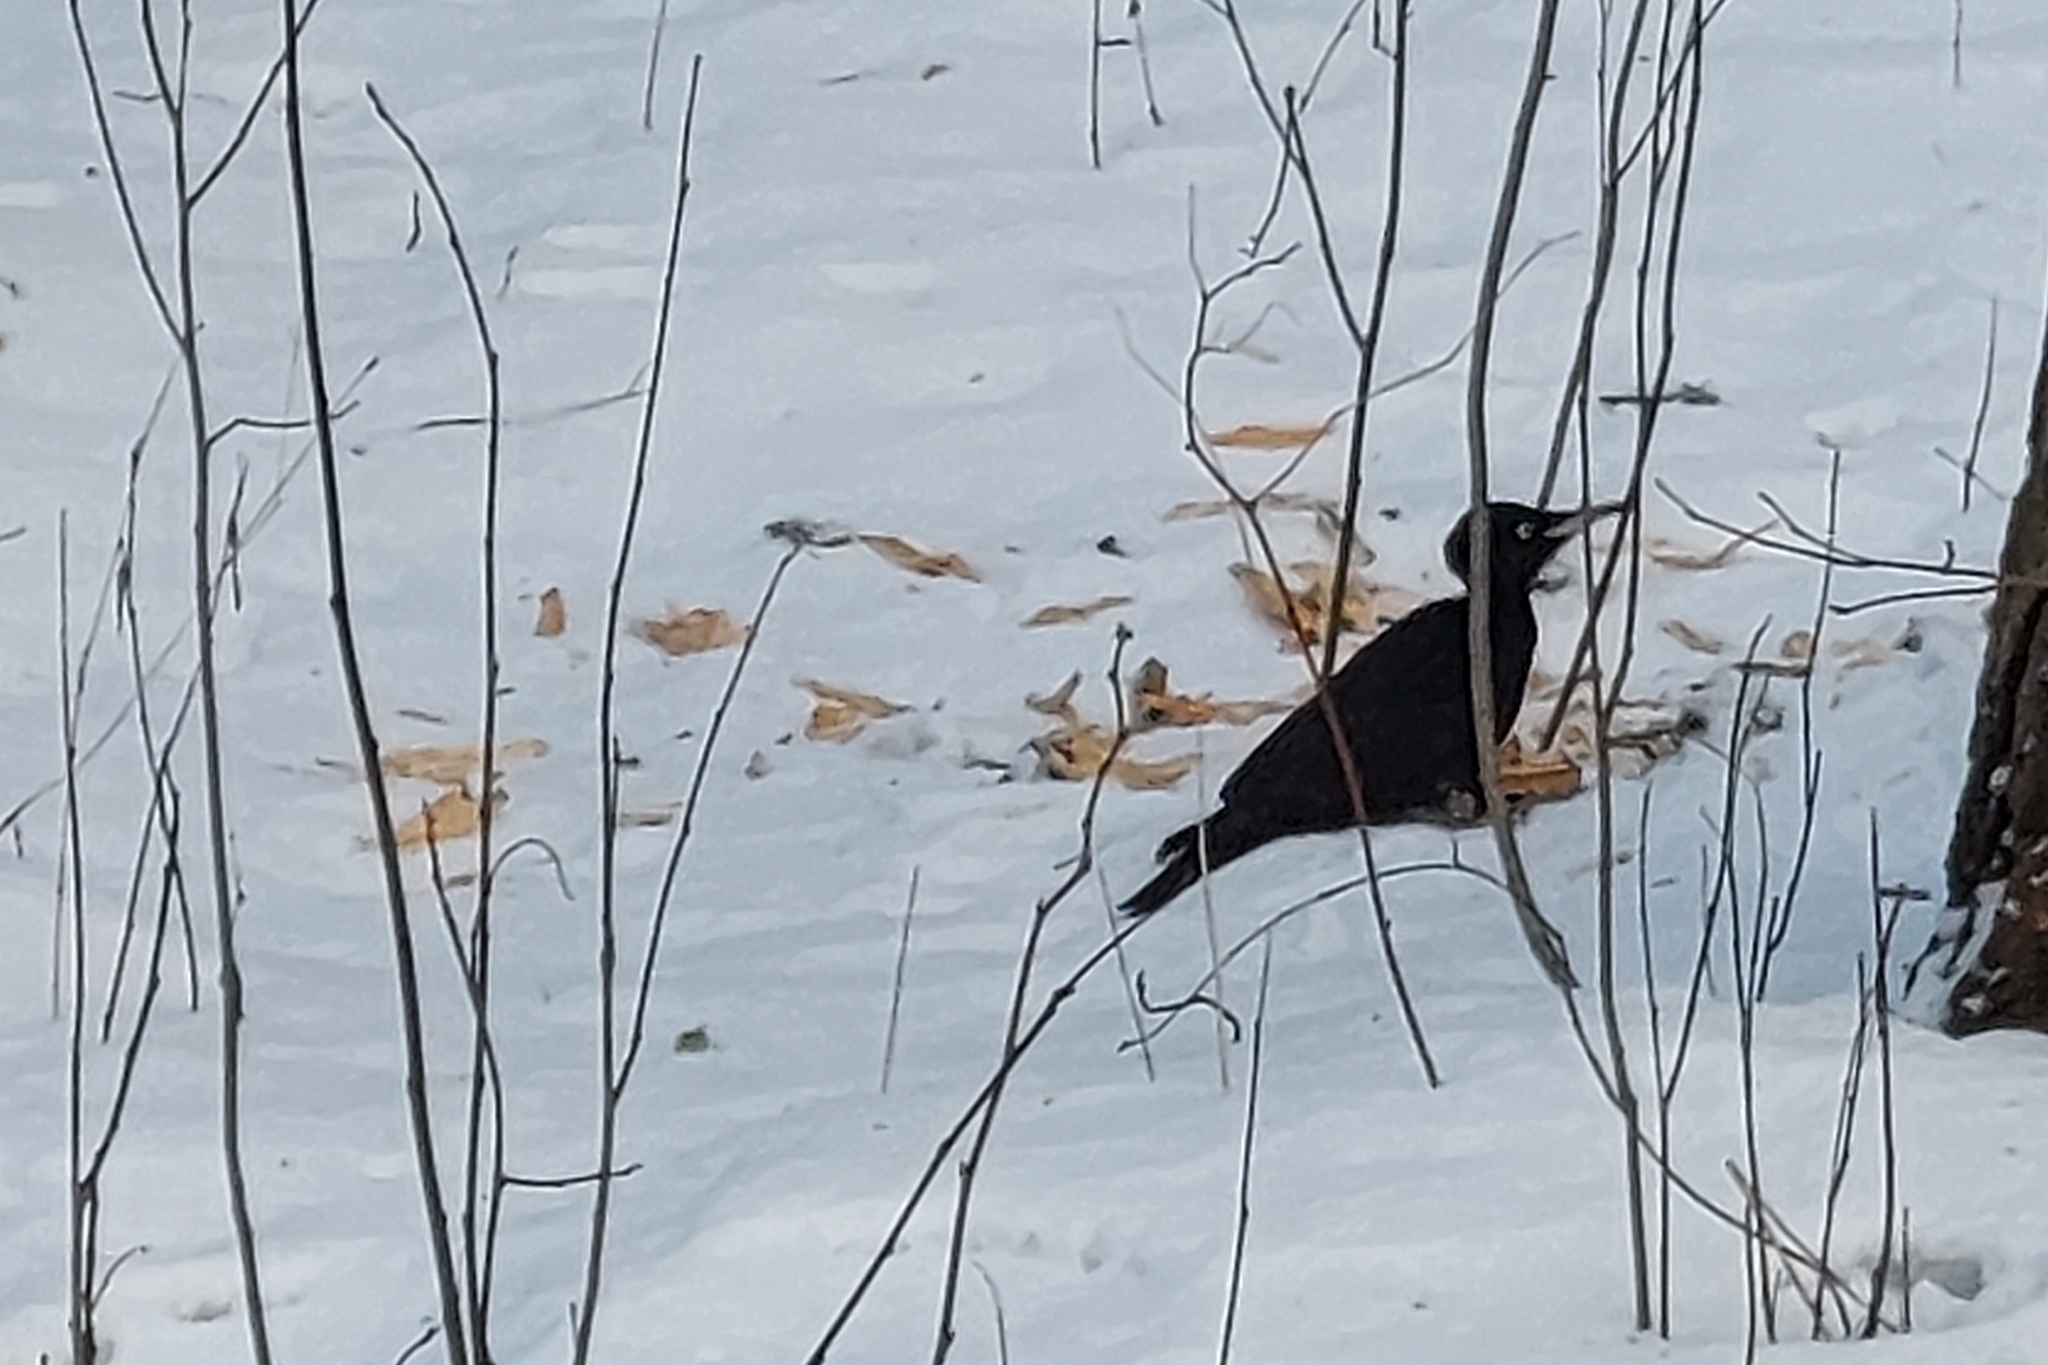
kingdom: Animalia
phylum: Chordata
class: Aves
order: Piciformes
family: Picidae
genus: Dryocopus
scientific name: Dryocopus martius
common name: Black woodpecker
